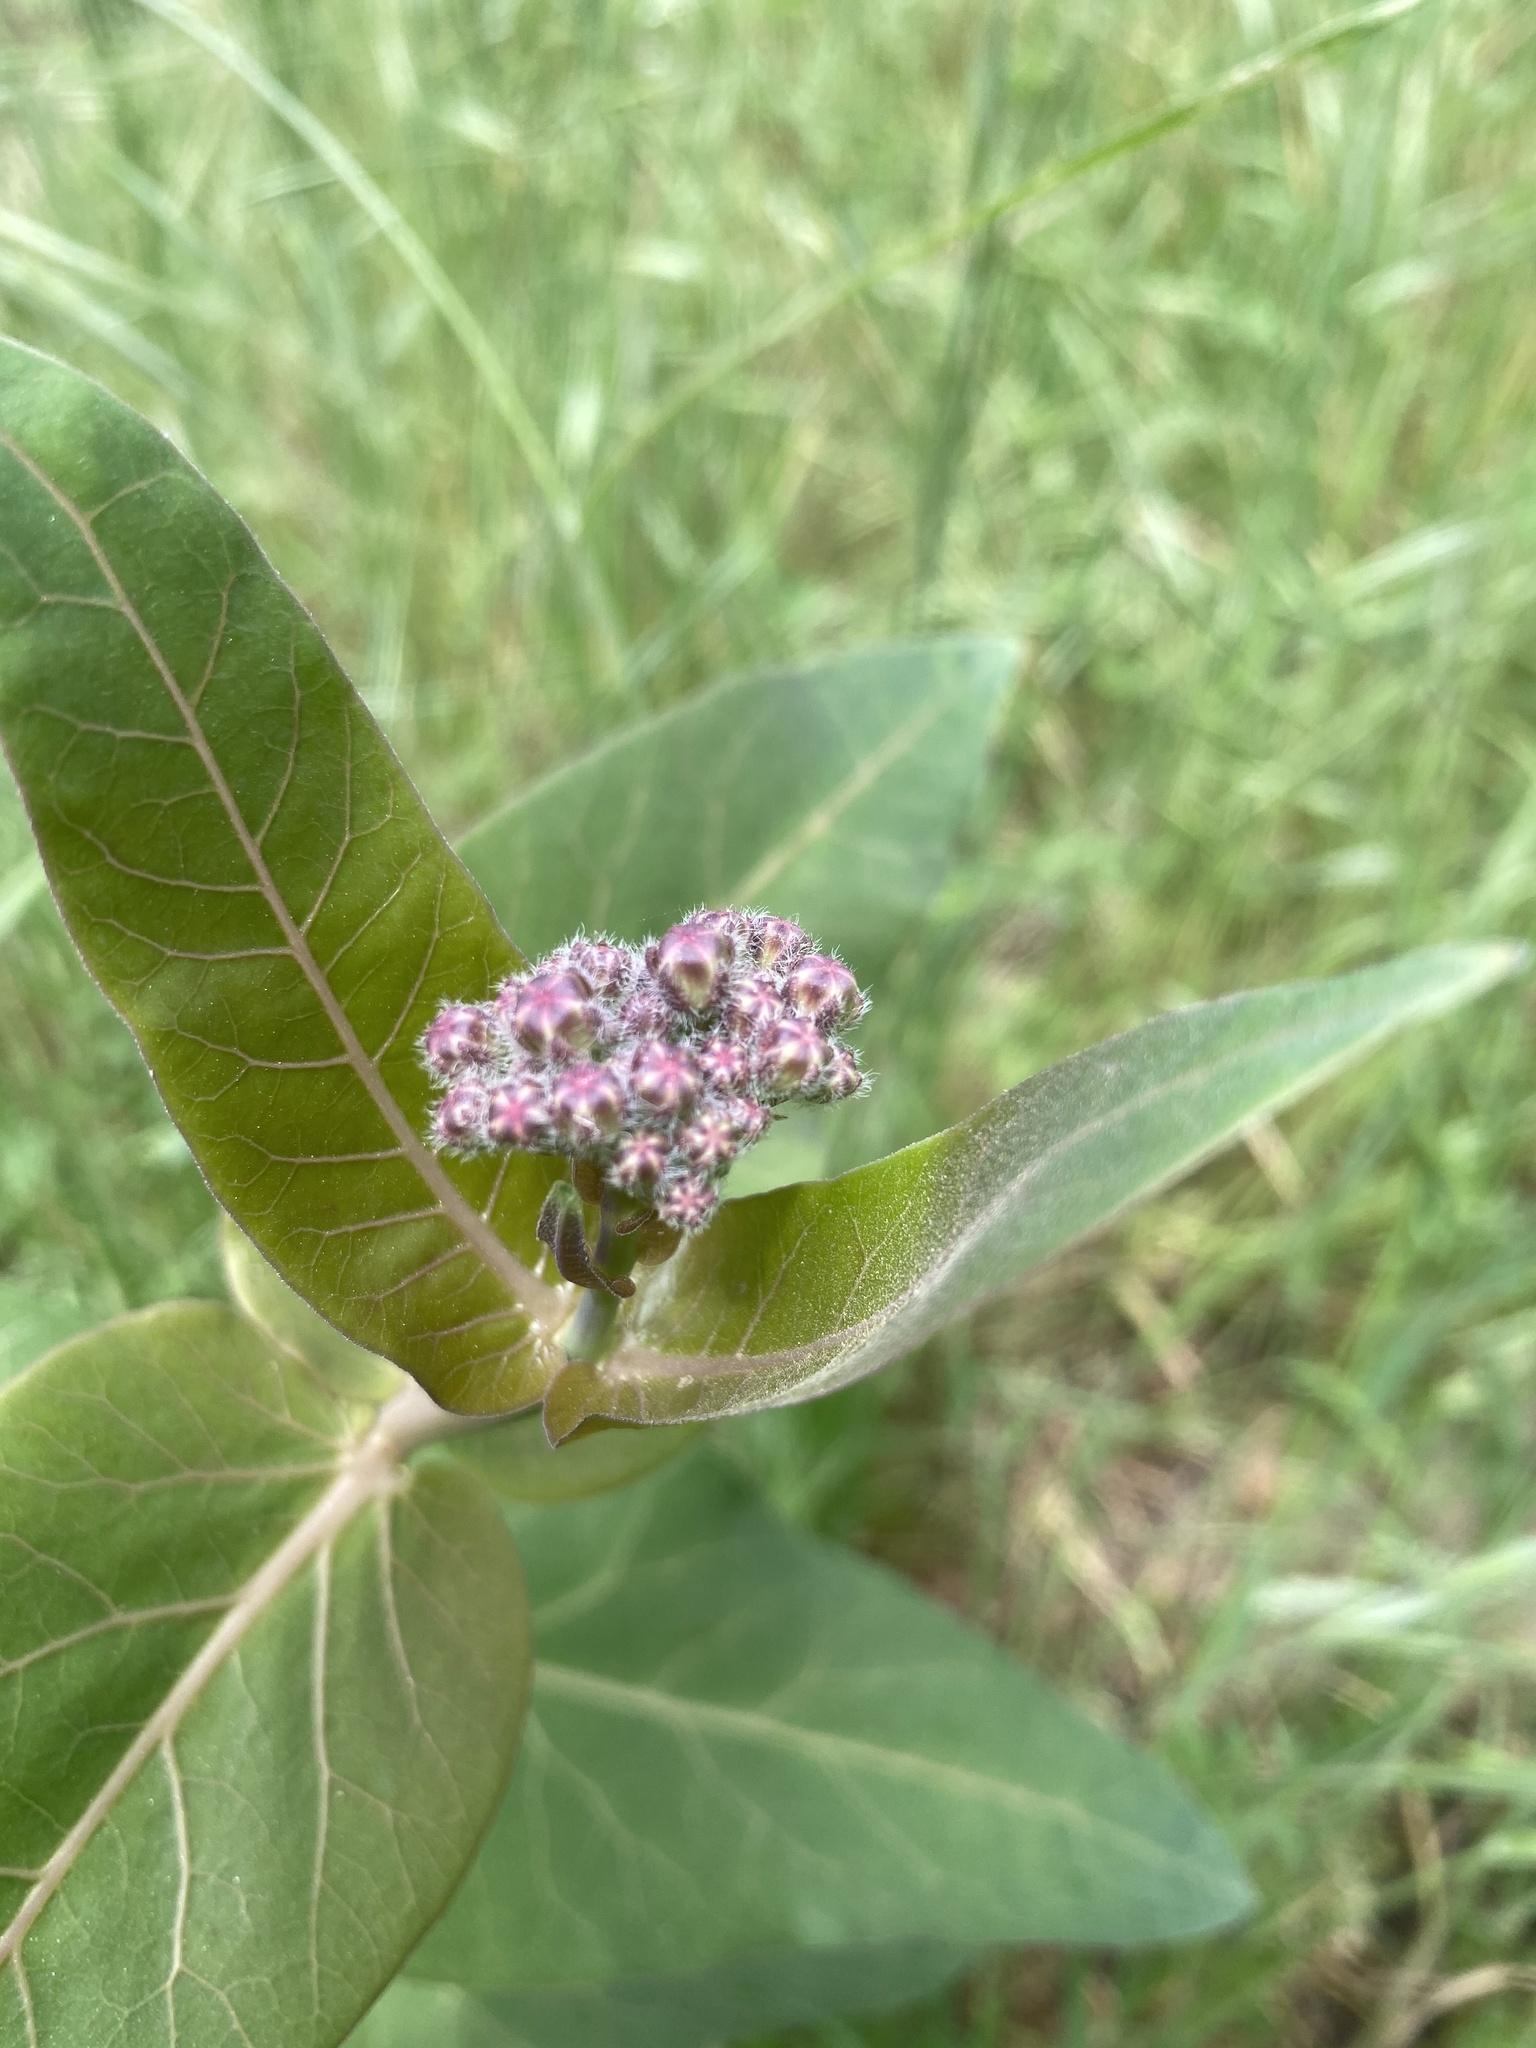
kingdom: Plantae
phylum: Tracheophyta
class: Magnoliopsida
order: Gentianales
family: Apocynaceae
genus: Asclepias
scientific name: Asclepias cordifolia
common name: Purple milkweed
